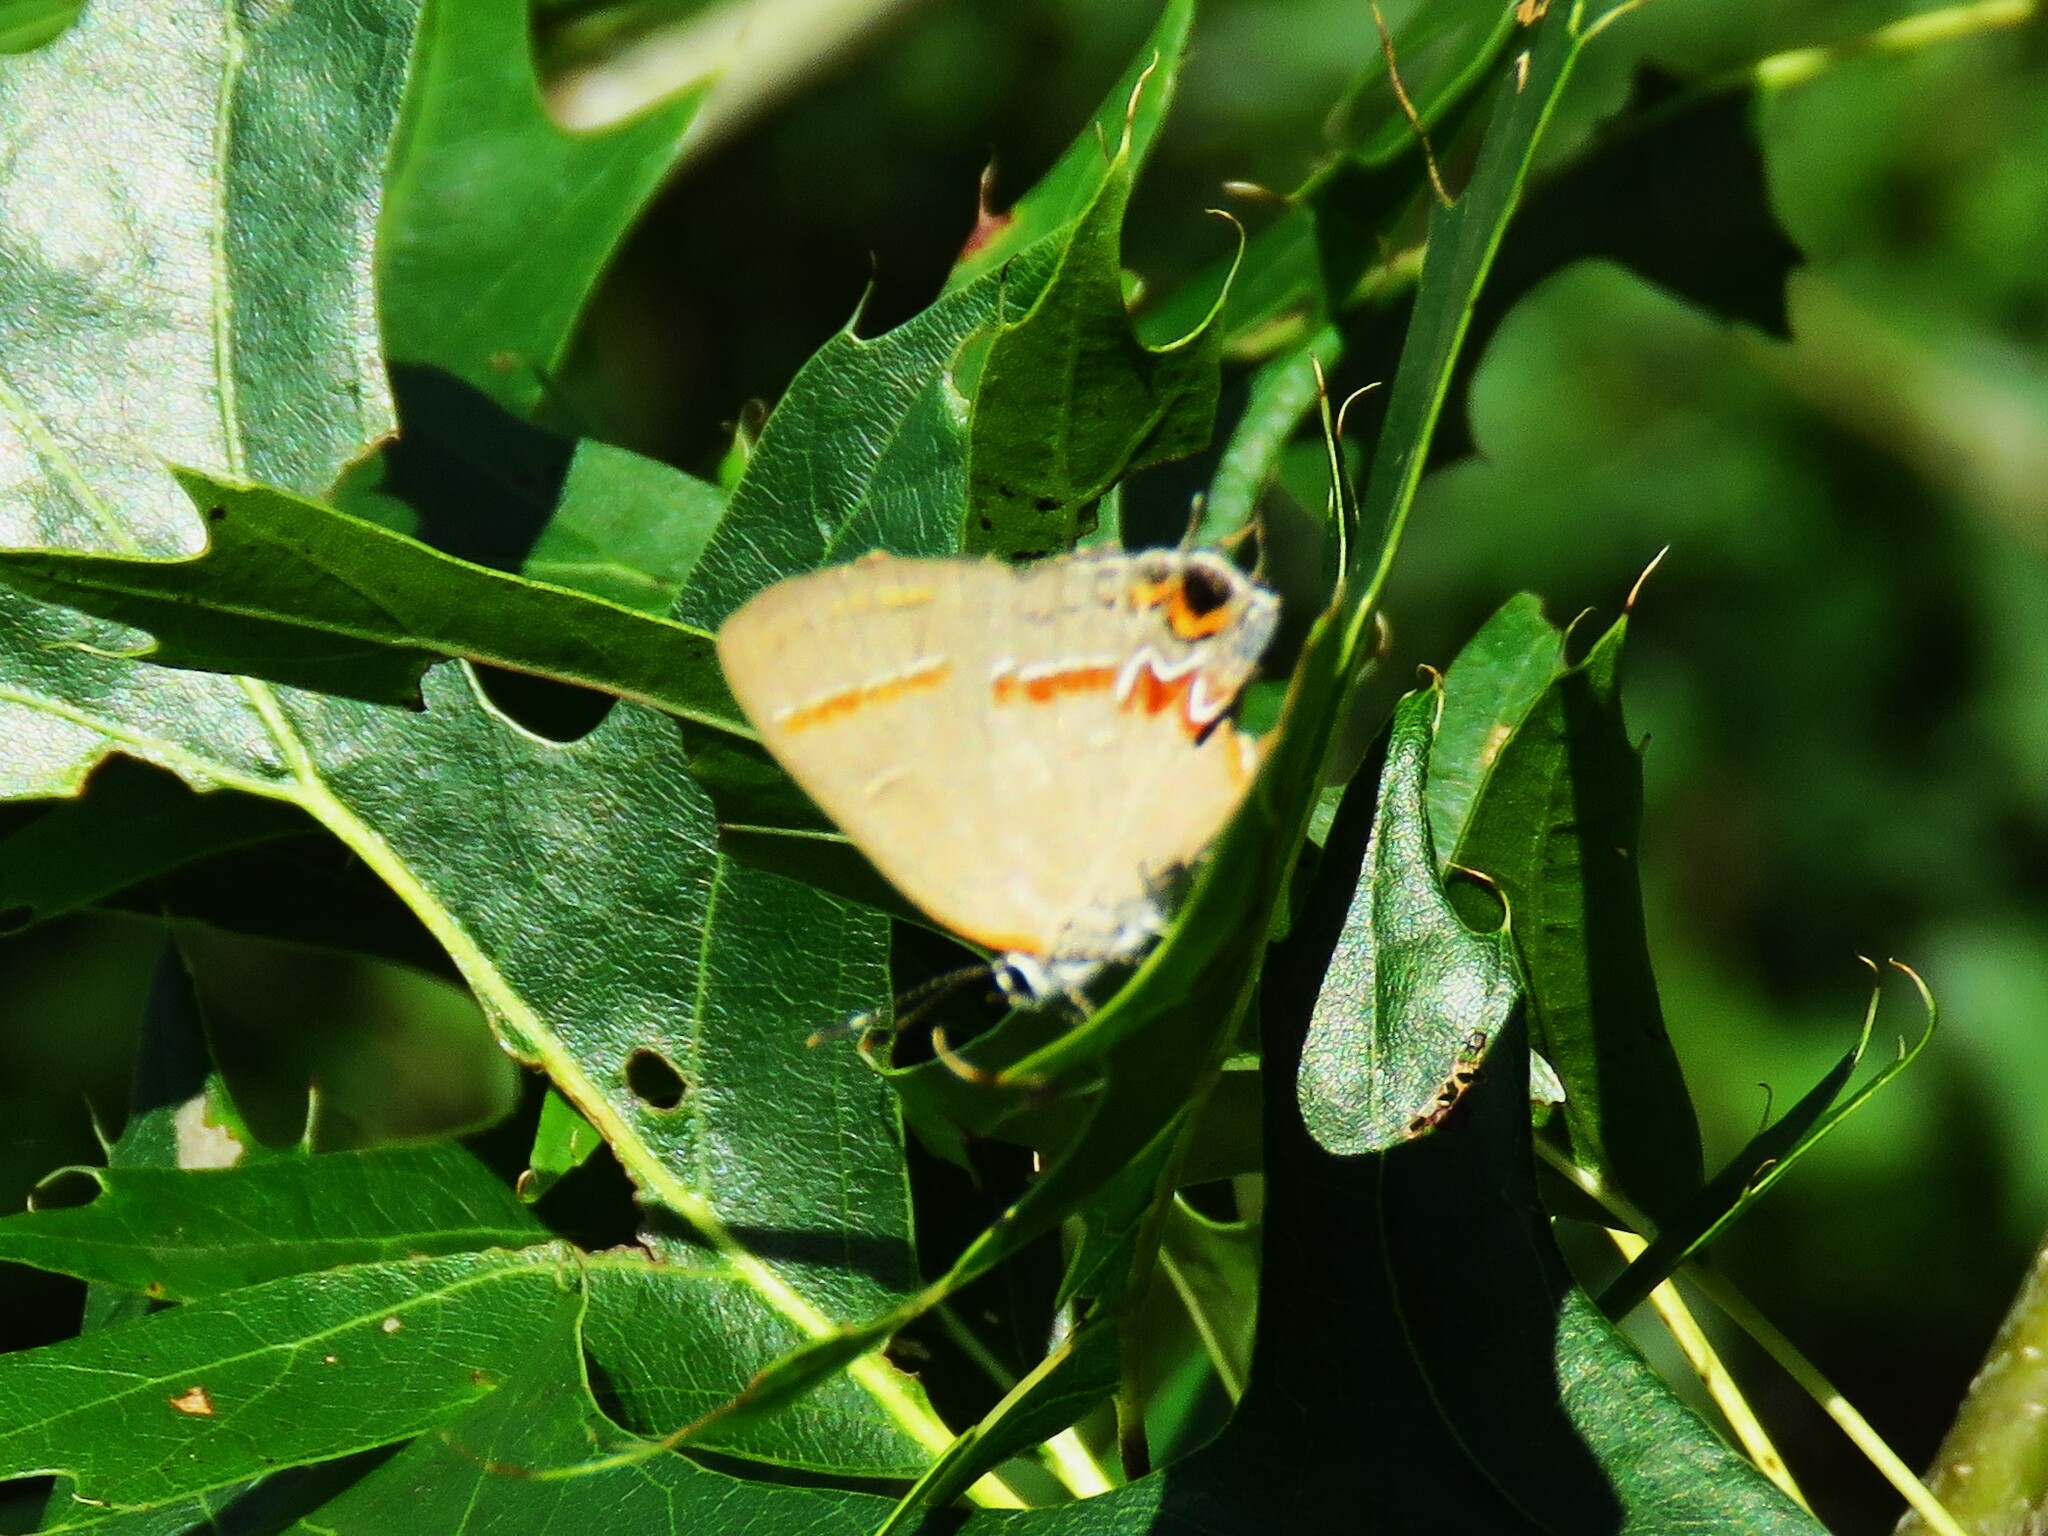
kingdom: Animalia
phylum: Arthropoda
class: Insecta
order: Lepidoptera
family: Lycaenidae
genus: Calycopis
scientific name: Calycopis cecrops
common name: Red-banded hairstreak
